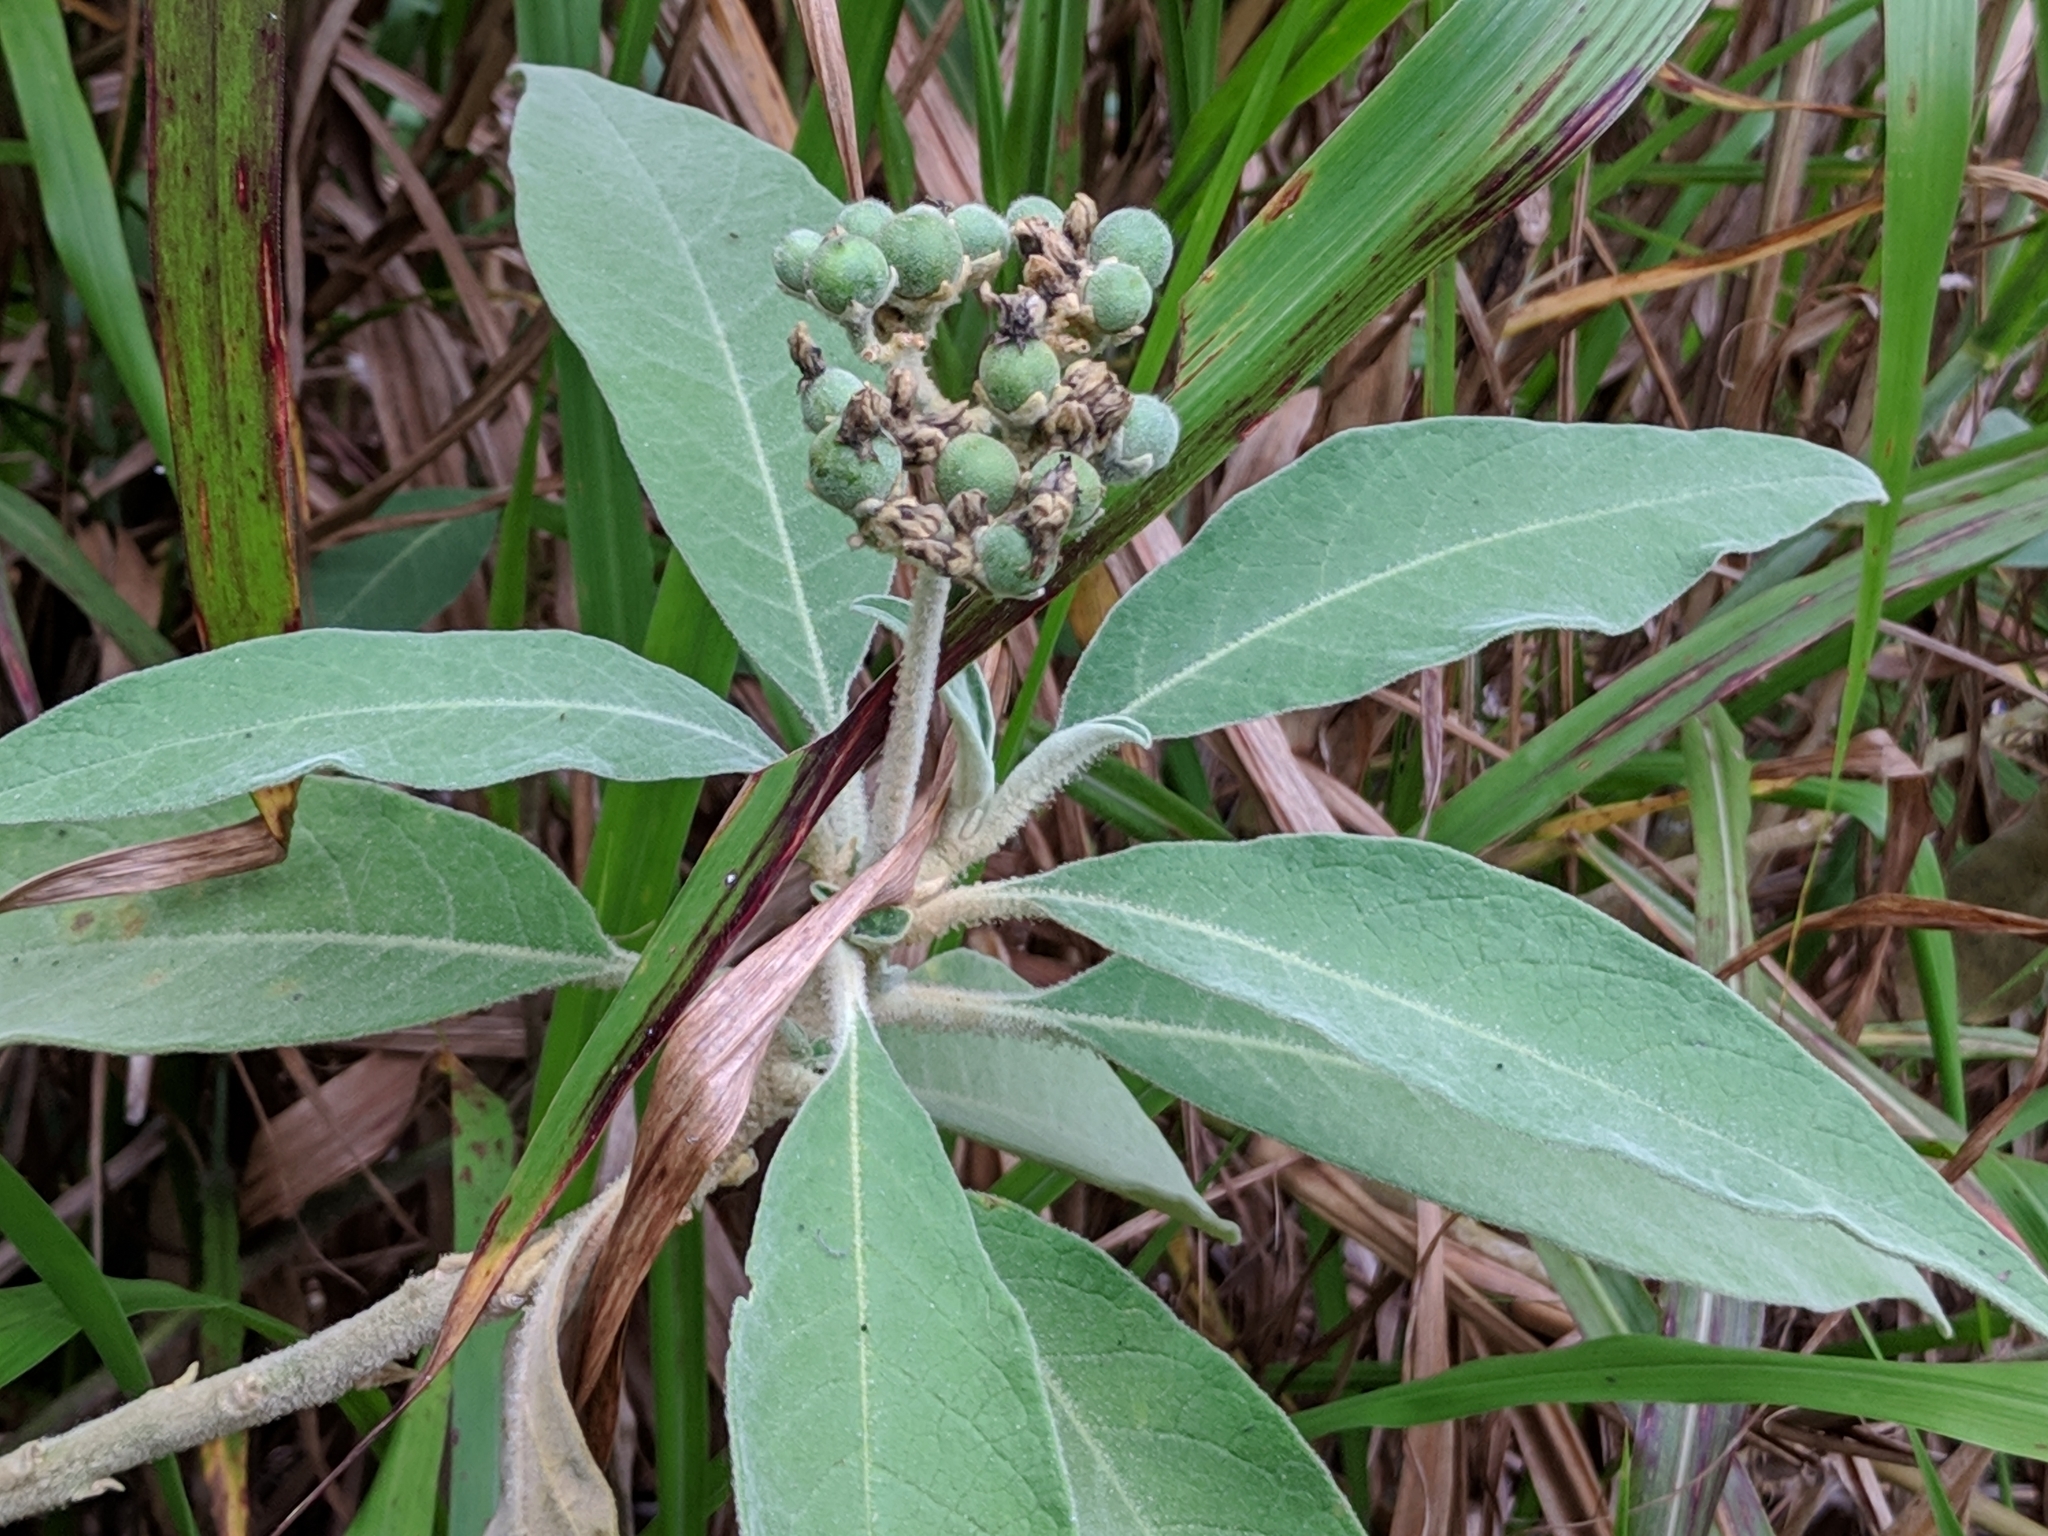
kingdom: Plantae
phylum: Tracheophyta
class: Magnoliopsida
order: Solanales
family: Solanaceae
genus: Solanum
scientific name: Solanum mauritianum
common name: Earleaf nightshade
